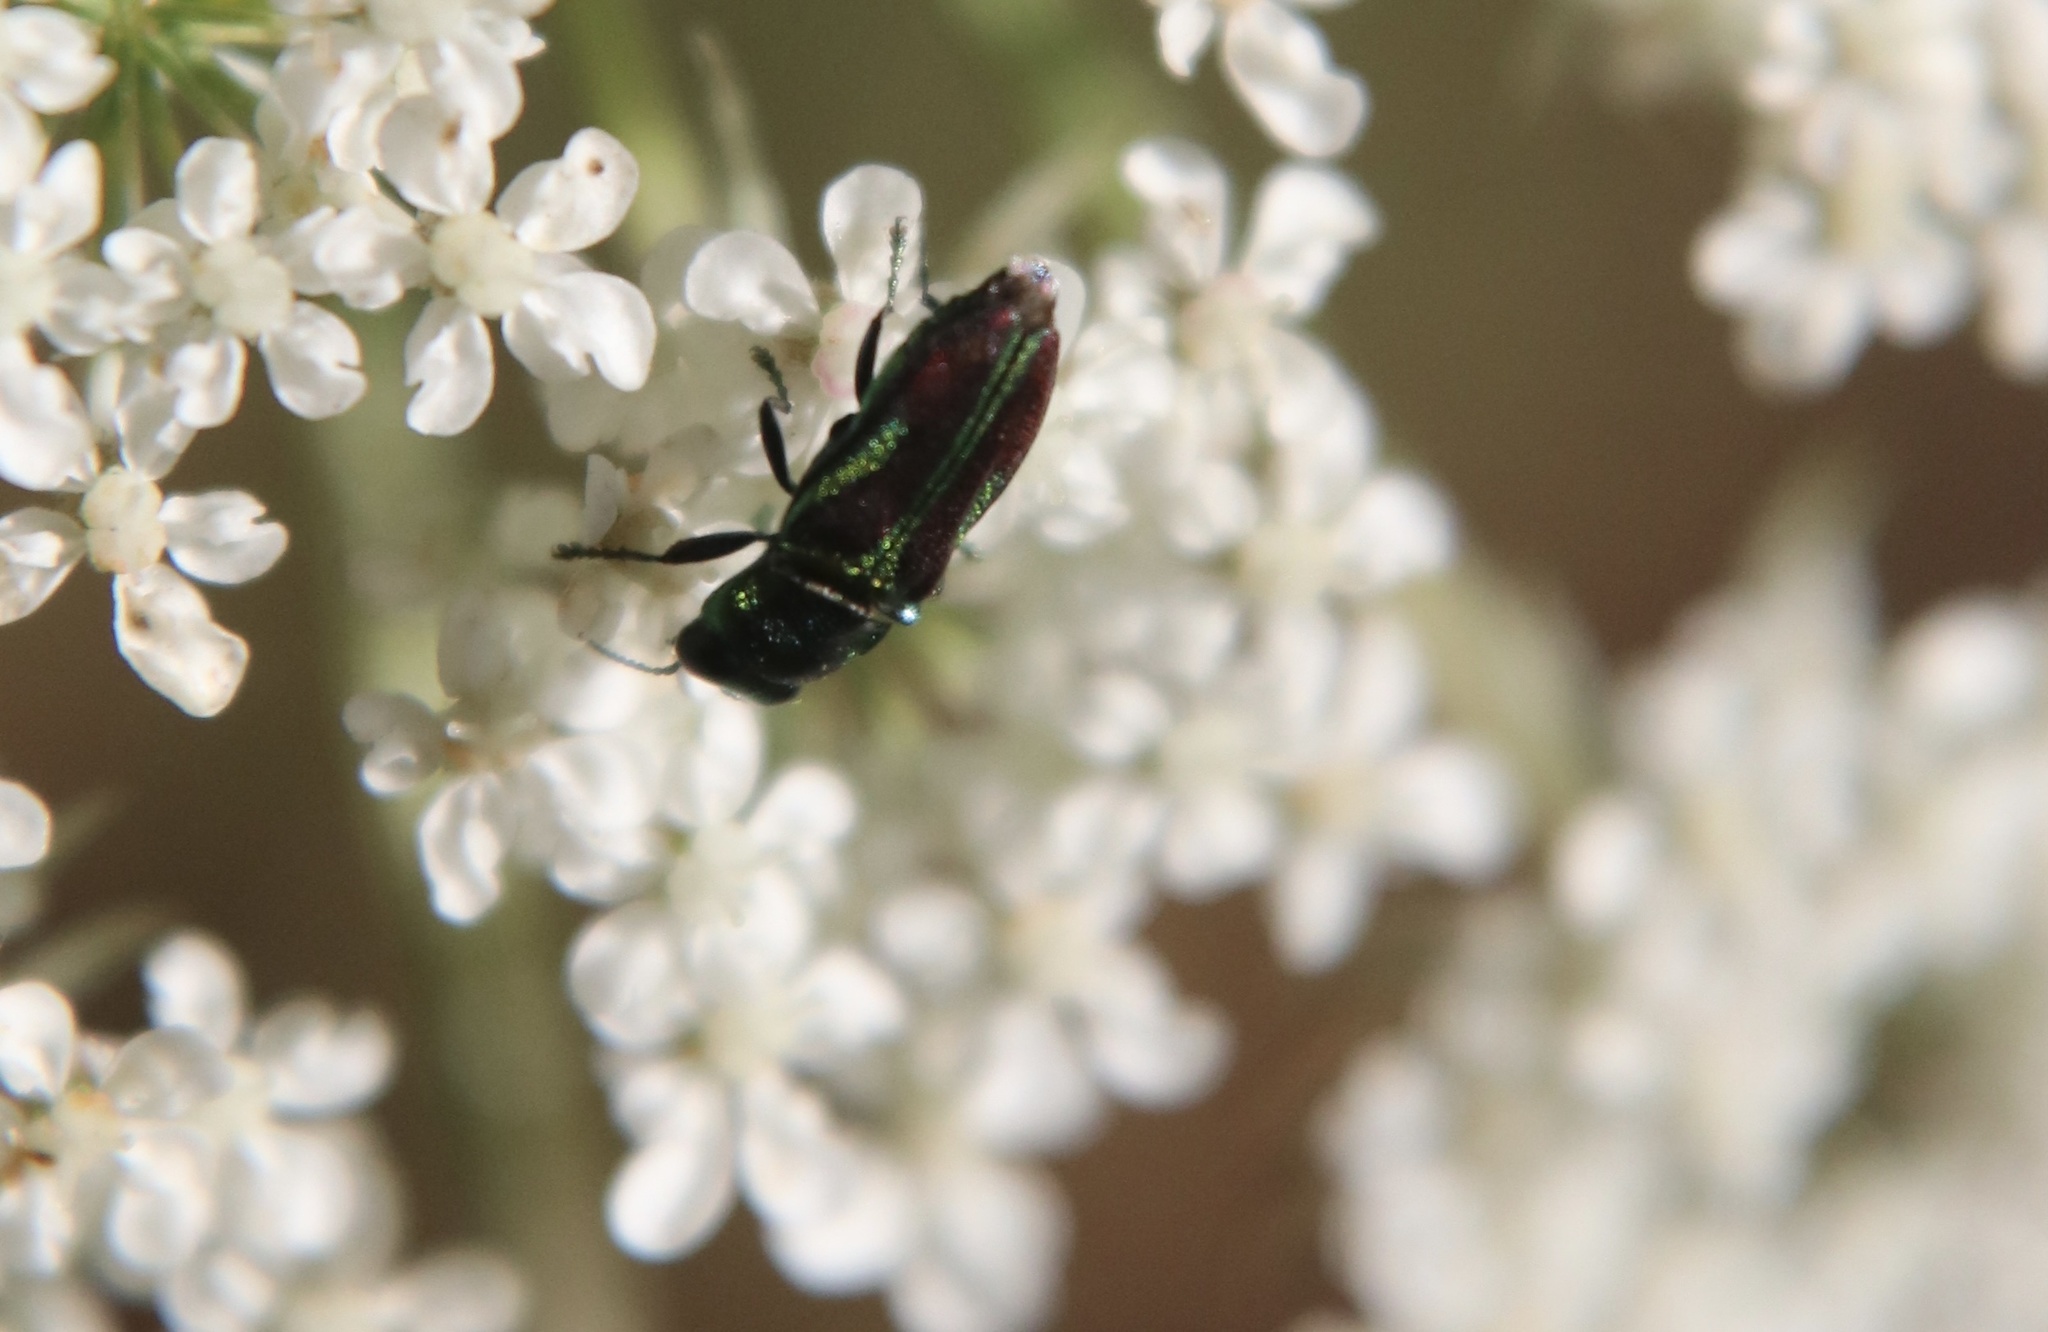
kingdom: Animalia
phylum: Arthropoda
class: Insecta
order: Coleoptera
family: Buprestidae
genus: Bilyaxia
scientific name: Bilyaxia concinna
